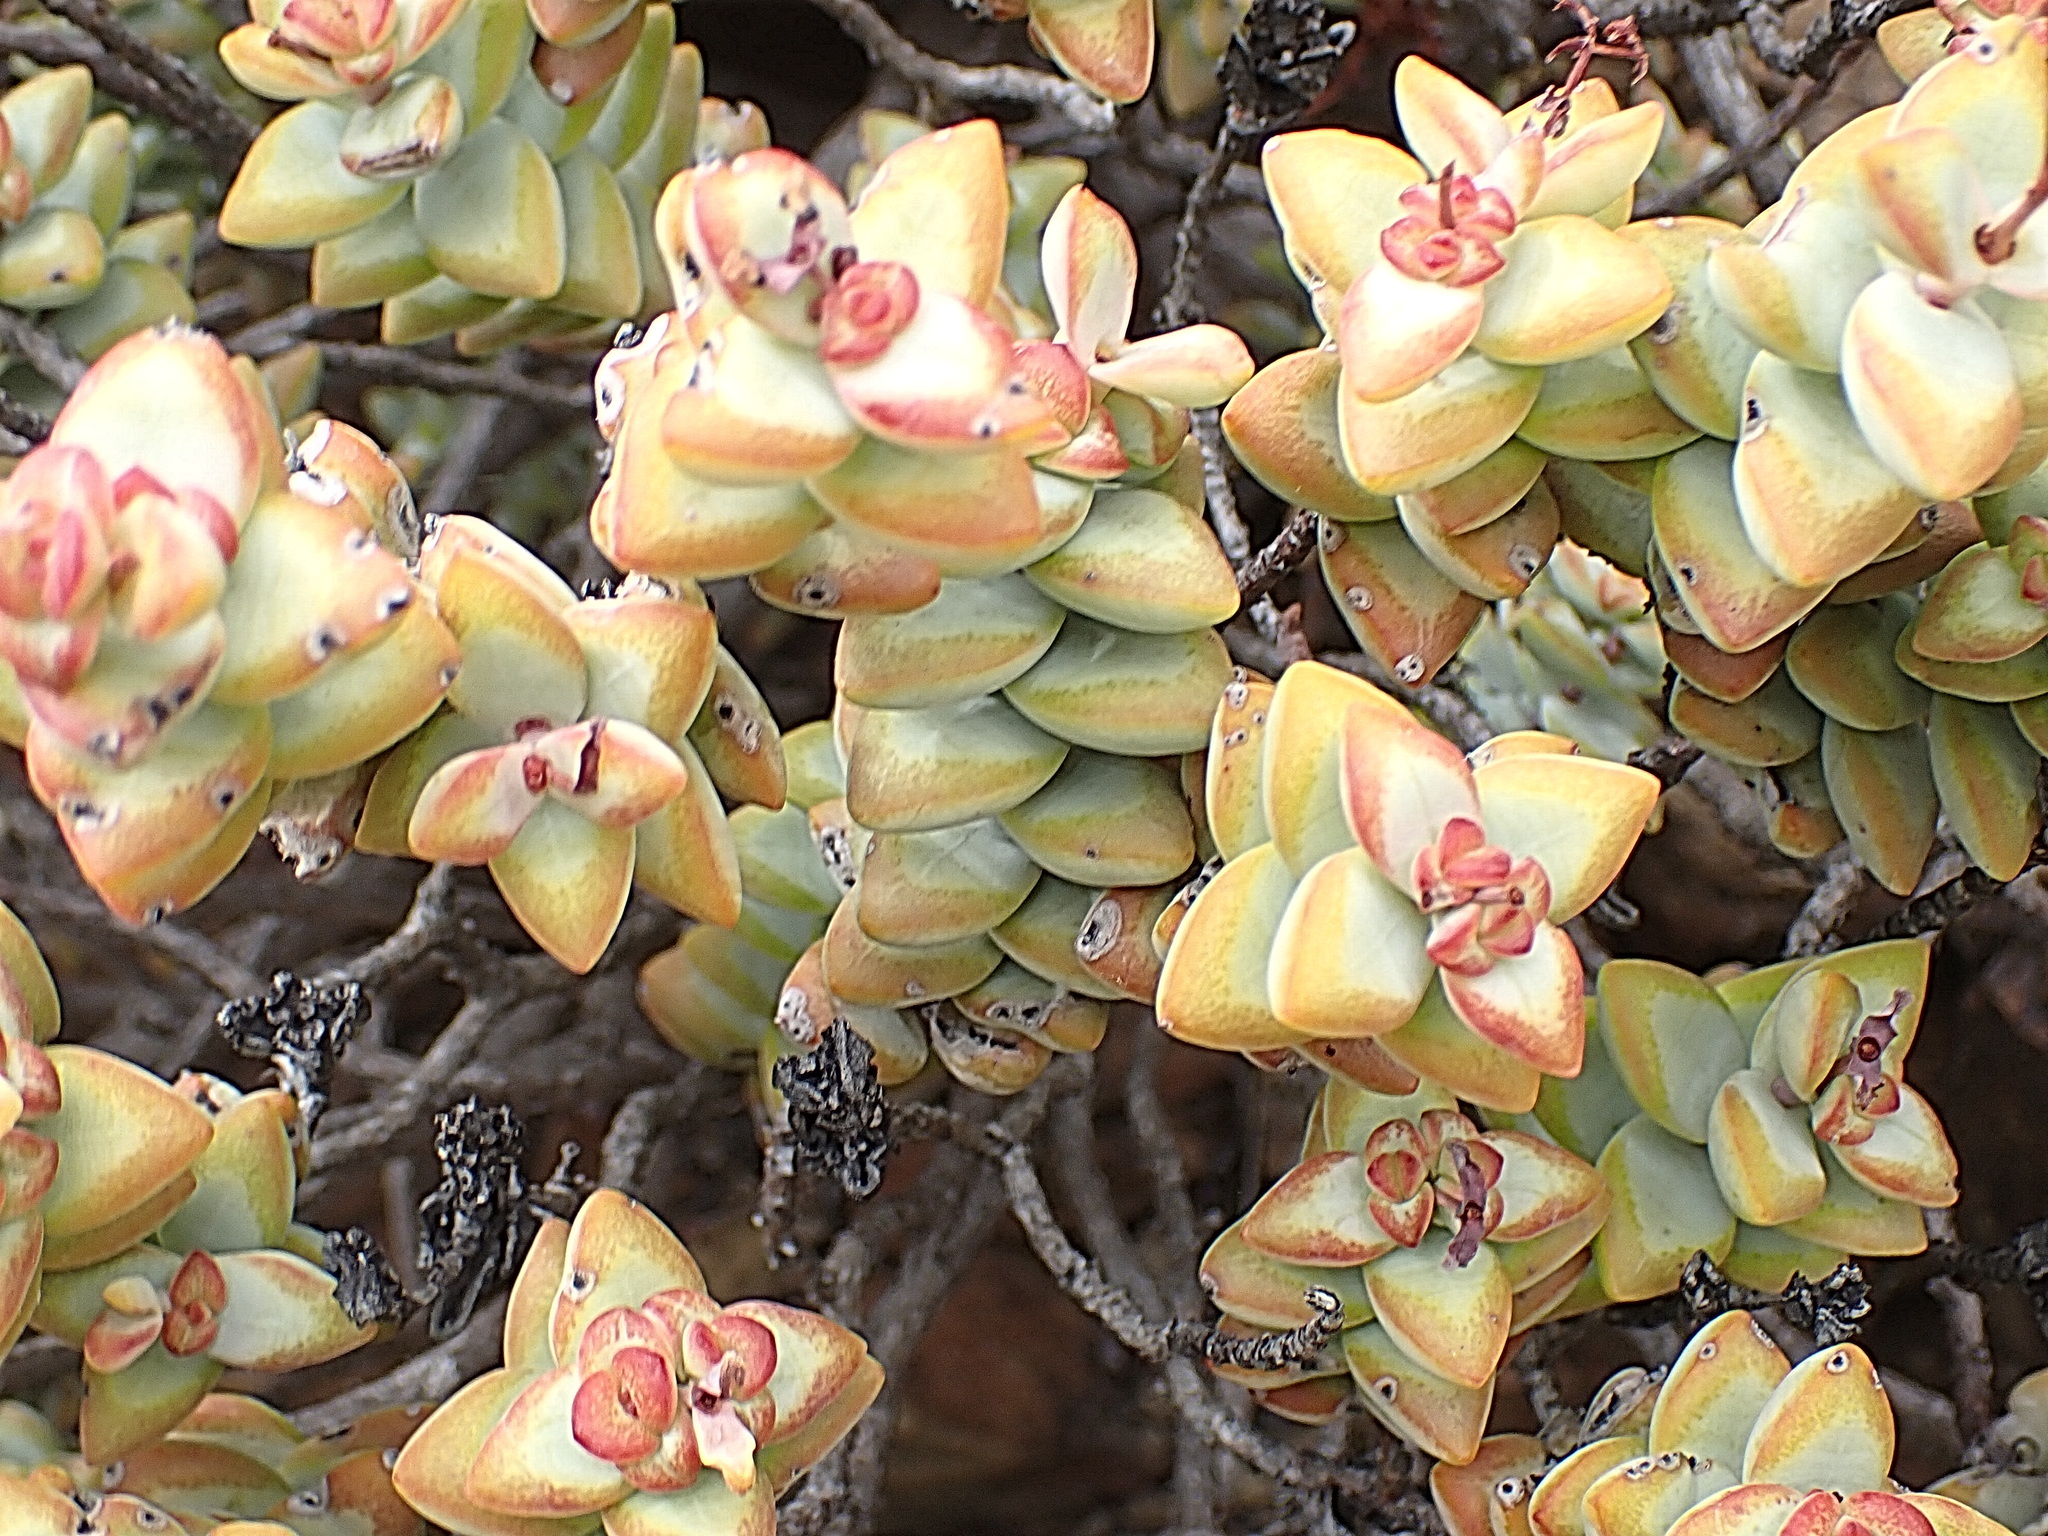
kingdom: Plantae
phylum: Tracheophyta
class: Magnoliopsida
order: Saxifragales
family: Crassulaceae
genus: Crassula
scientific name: Crassula rupestris
